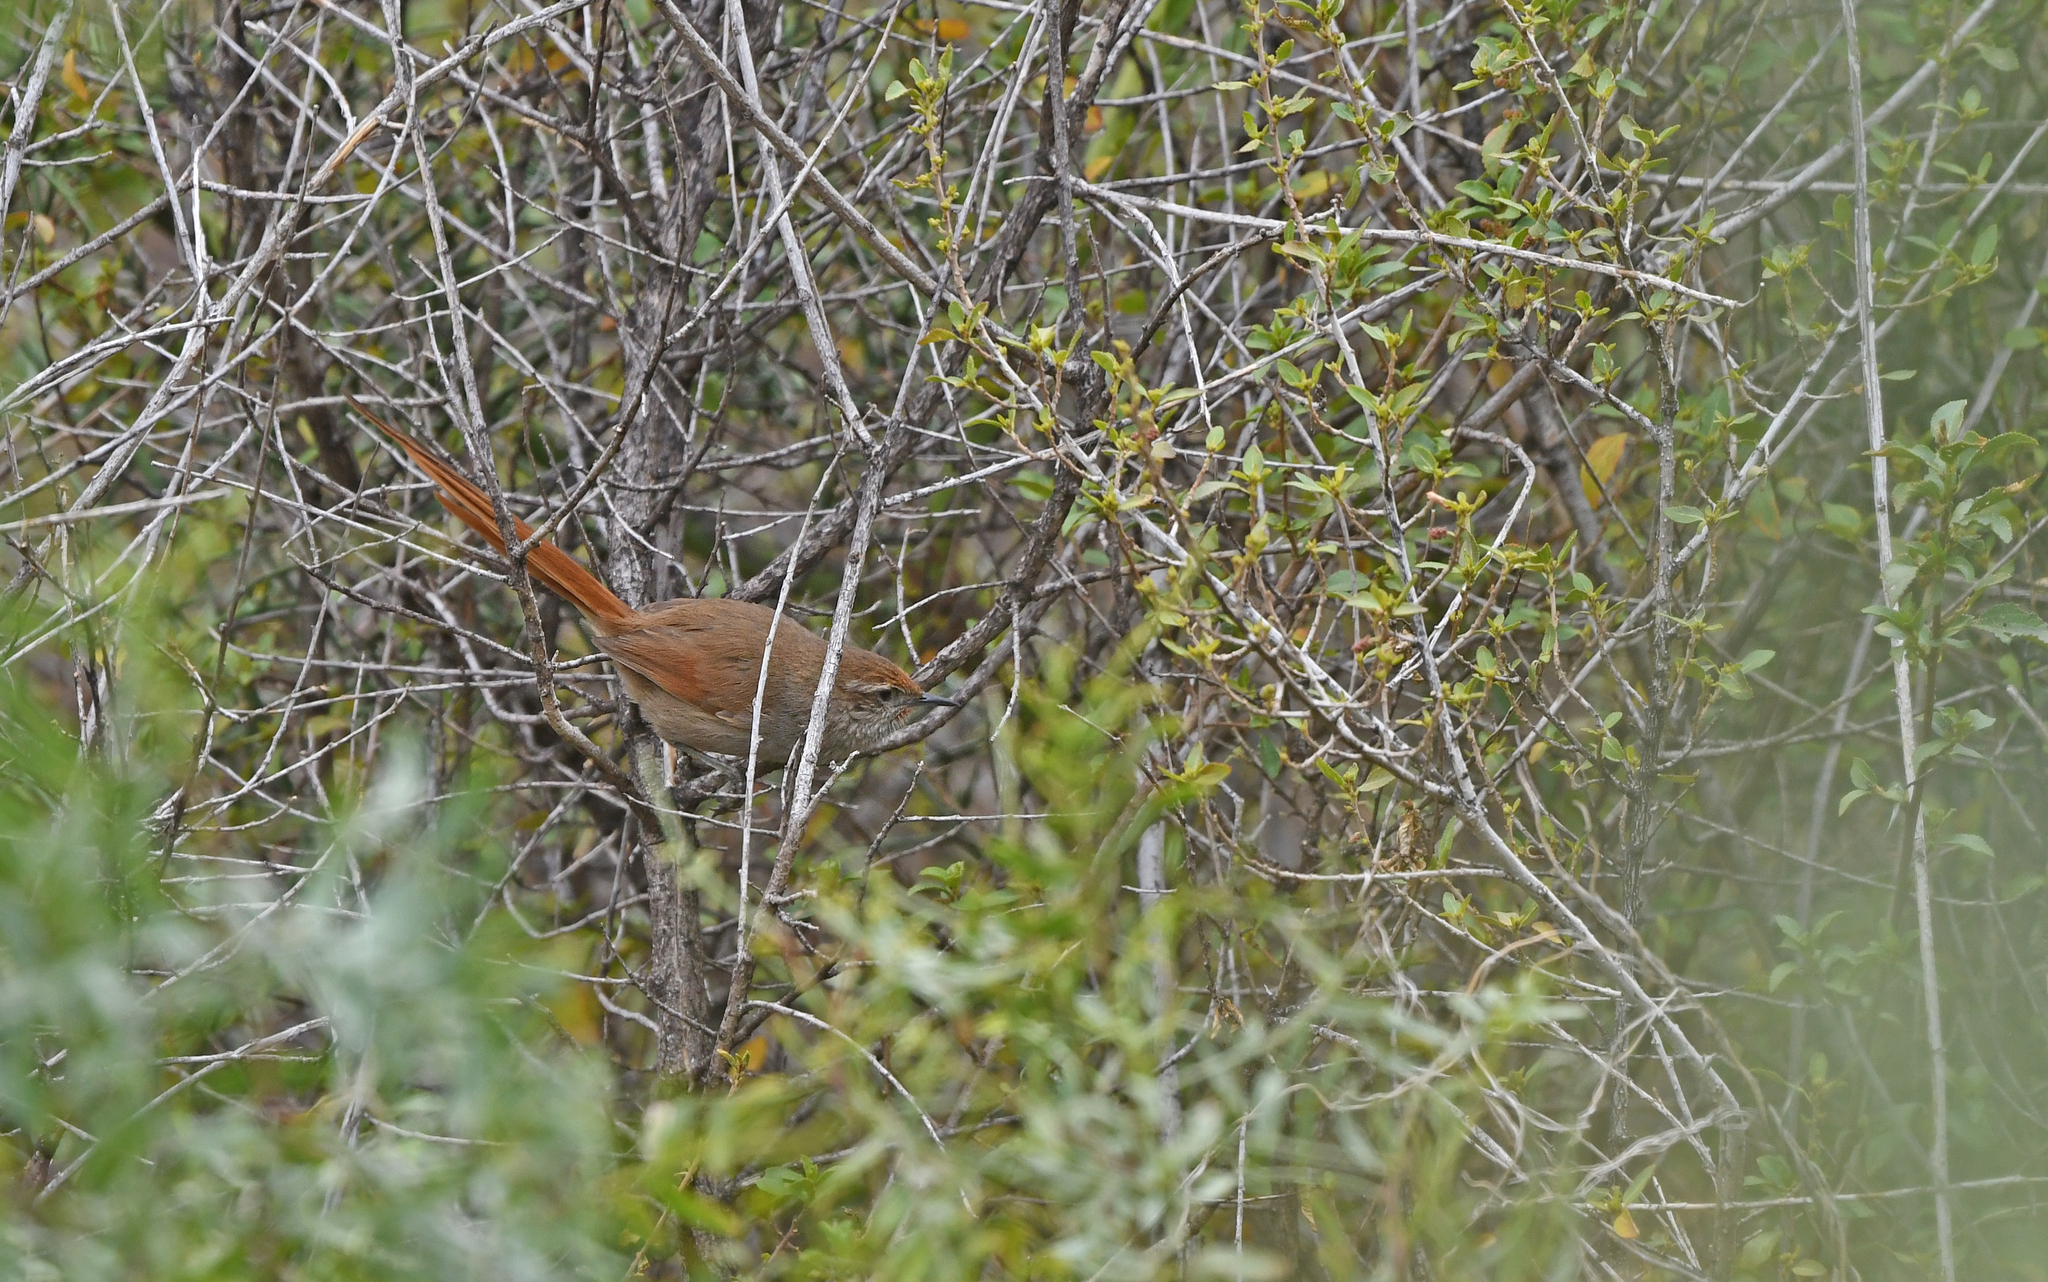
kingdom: Animalia
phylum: Chordata
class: Aves
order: Passeriformes
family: Furnariidae
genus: Asthenes
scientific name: Asthenes ottonis
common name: Rusty-fronted canastero
